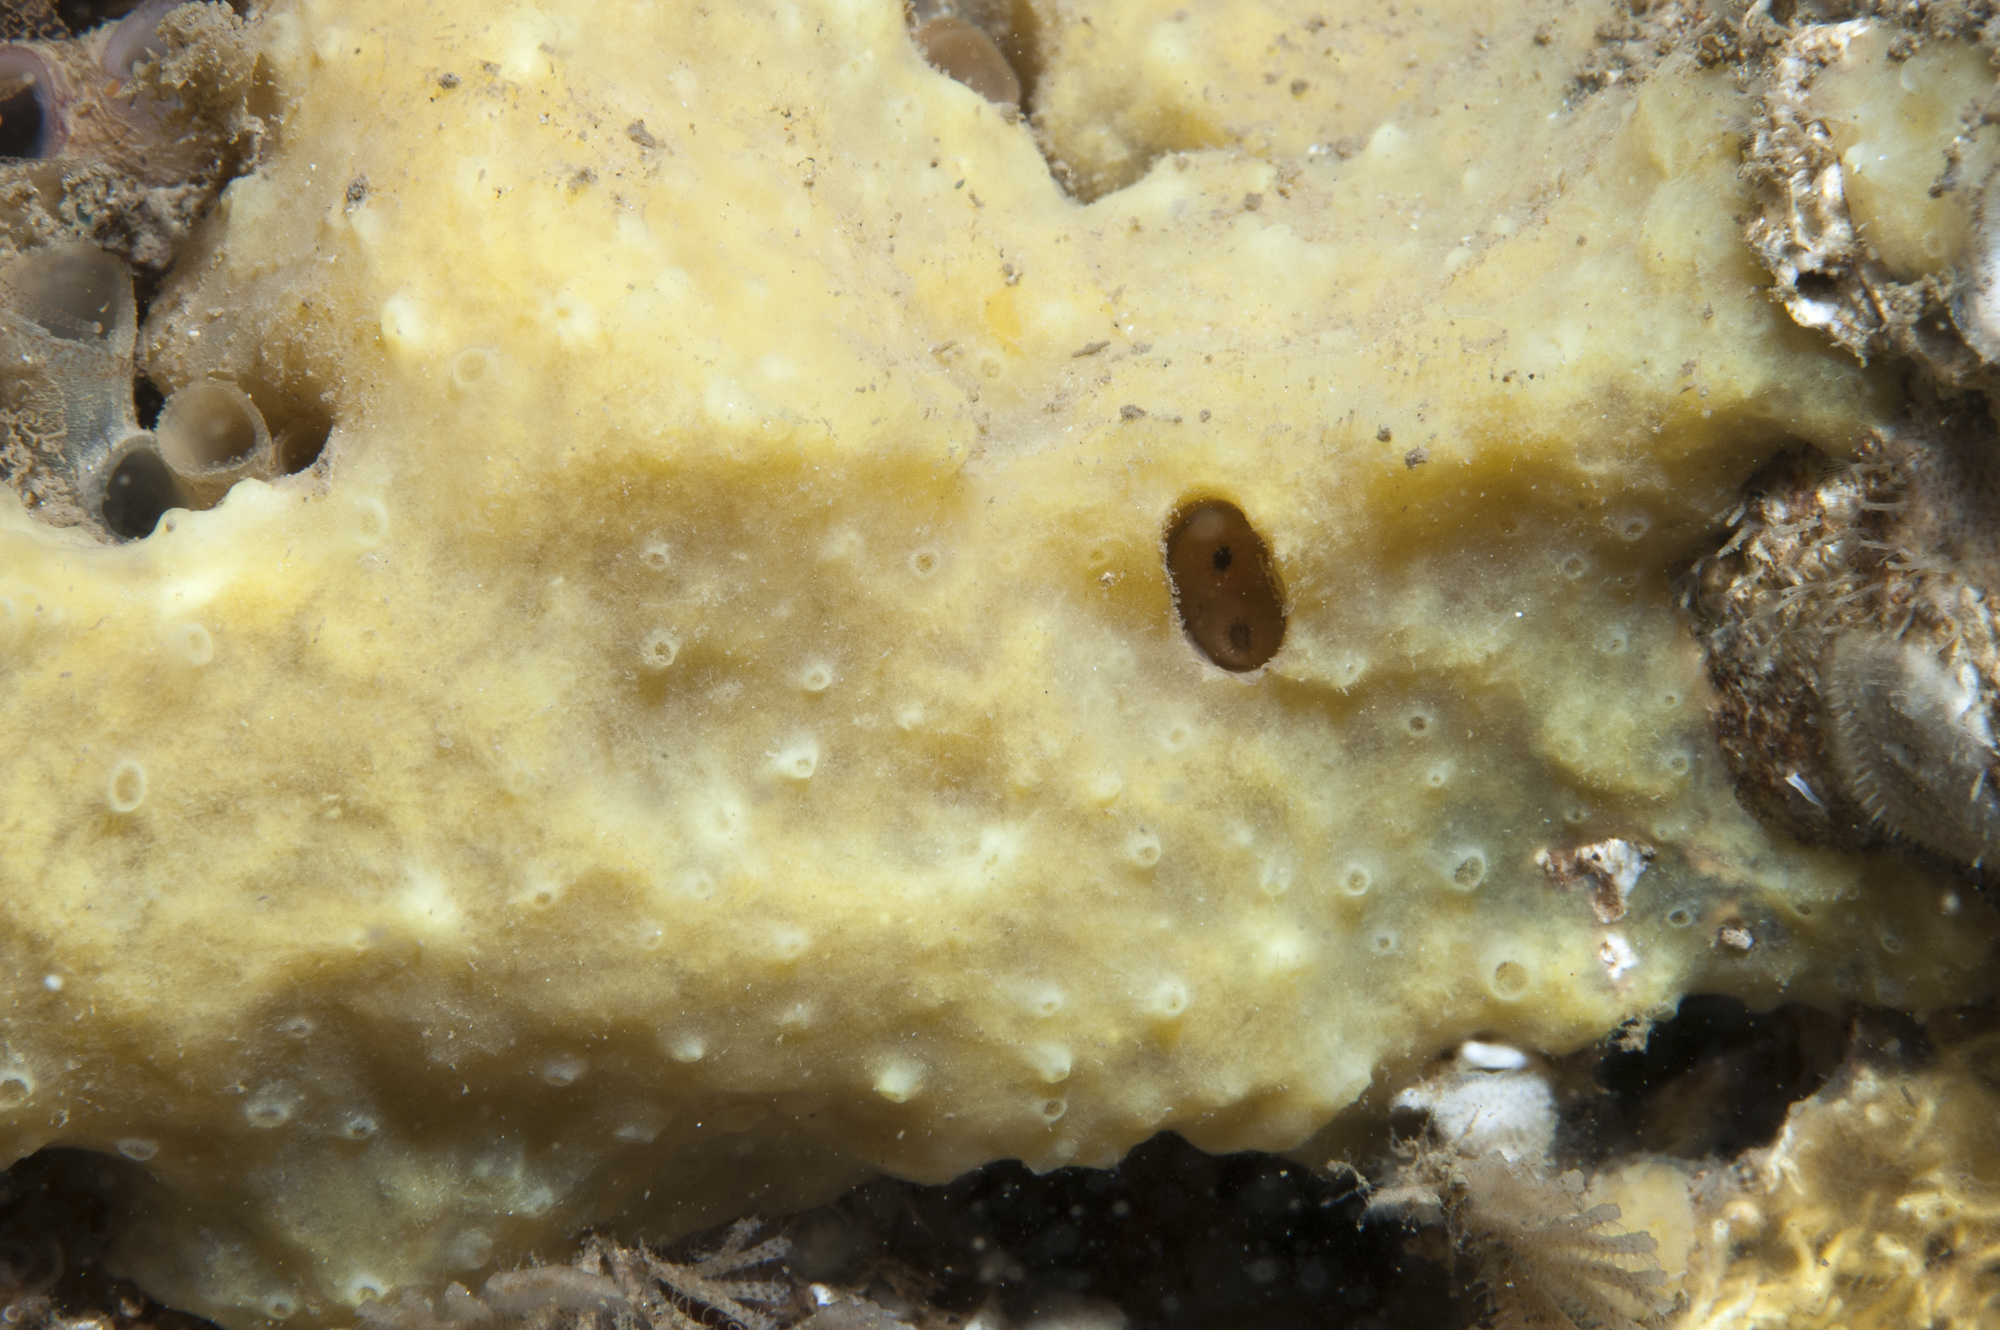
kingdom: Animalia
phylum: Porifera
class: Demospongiae
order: Poecilosclerida
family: Coelosphaeridae
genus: Lissodendoryx
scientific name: Lissodendoryx jenjonesae
